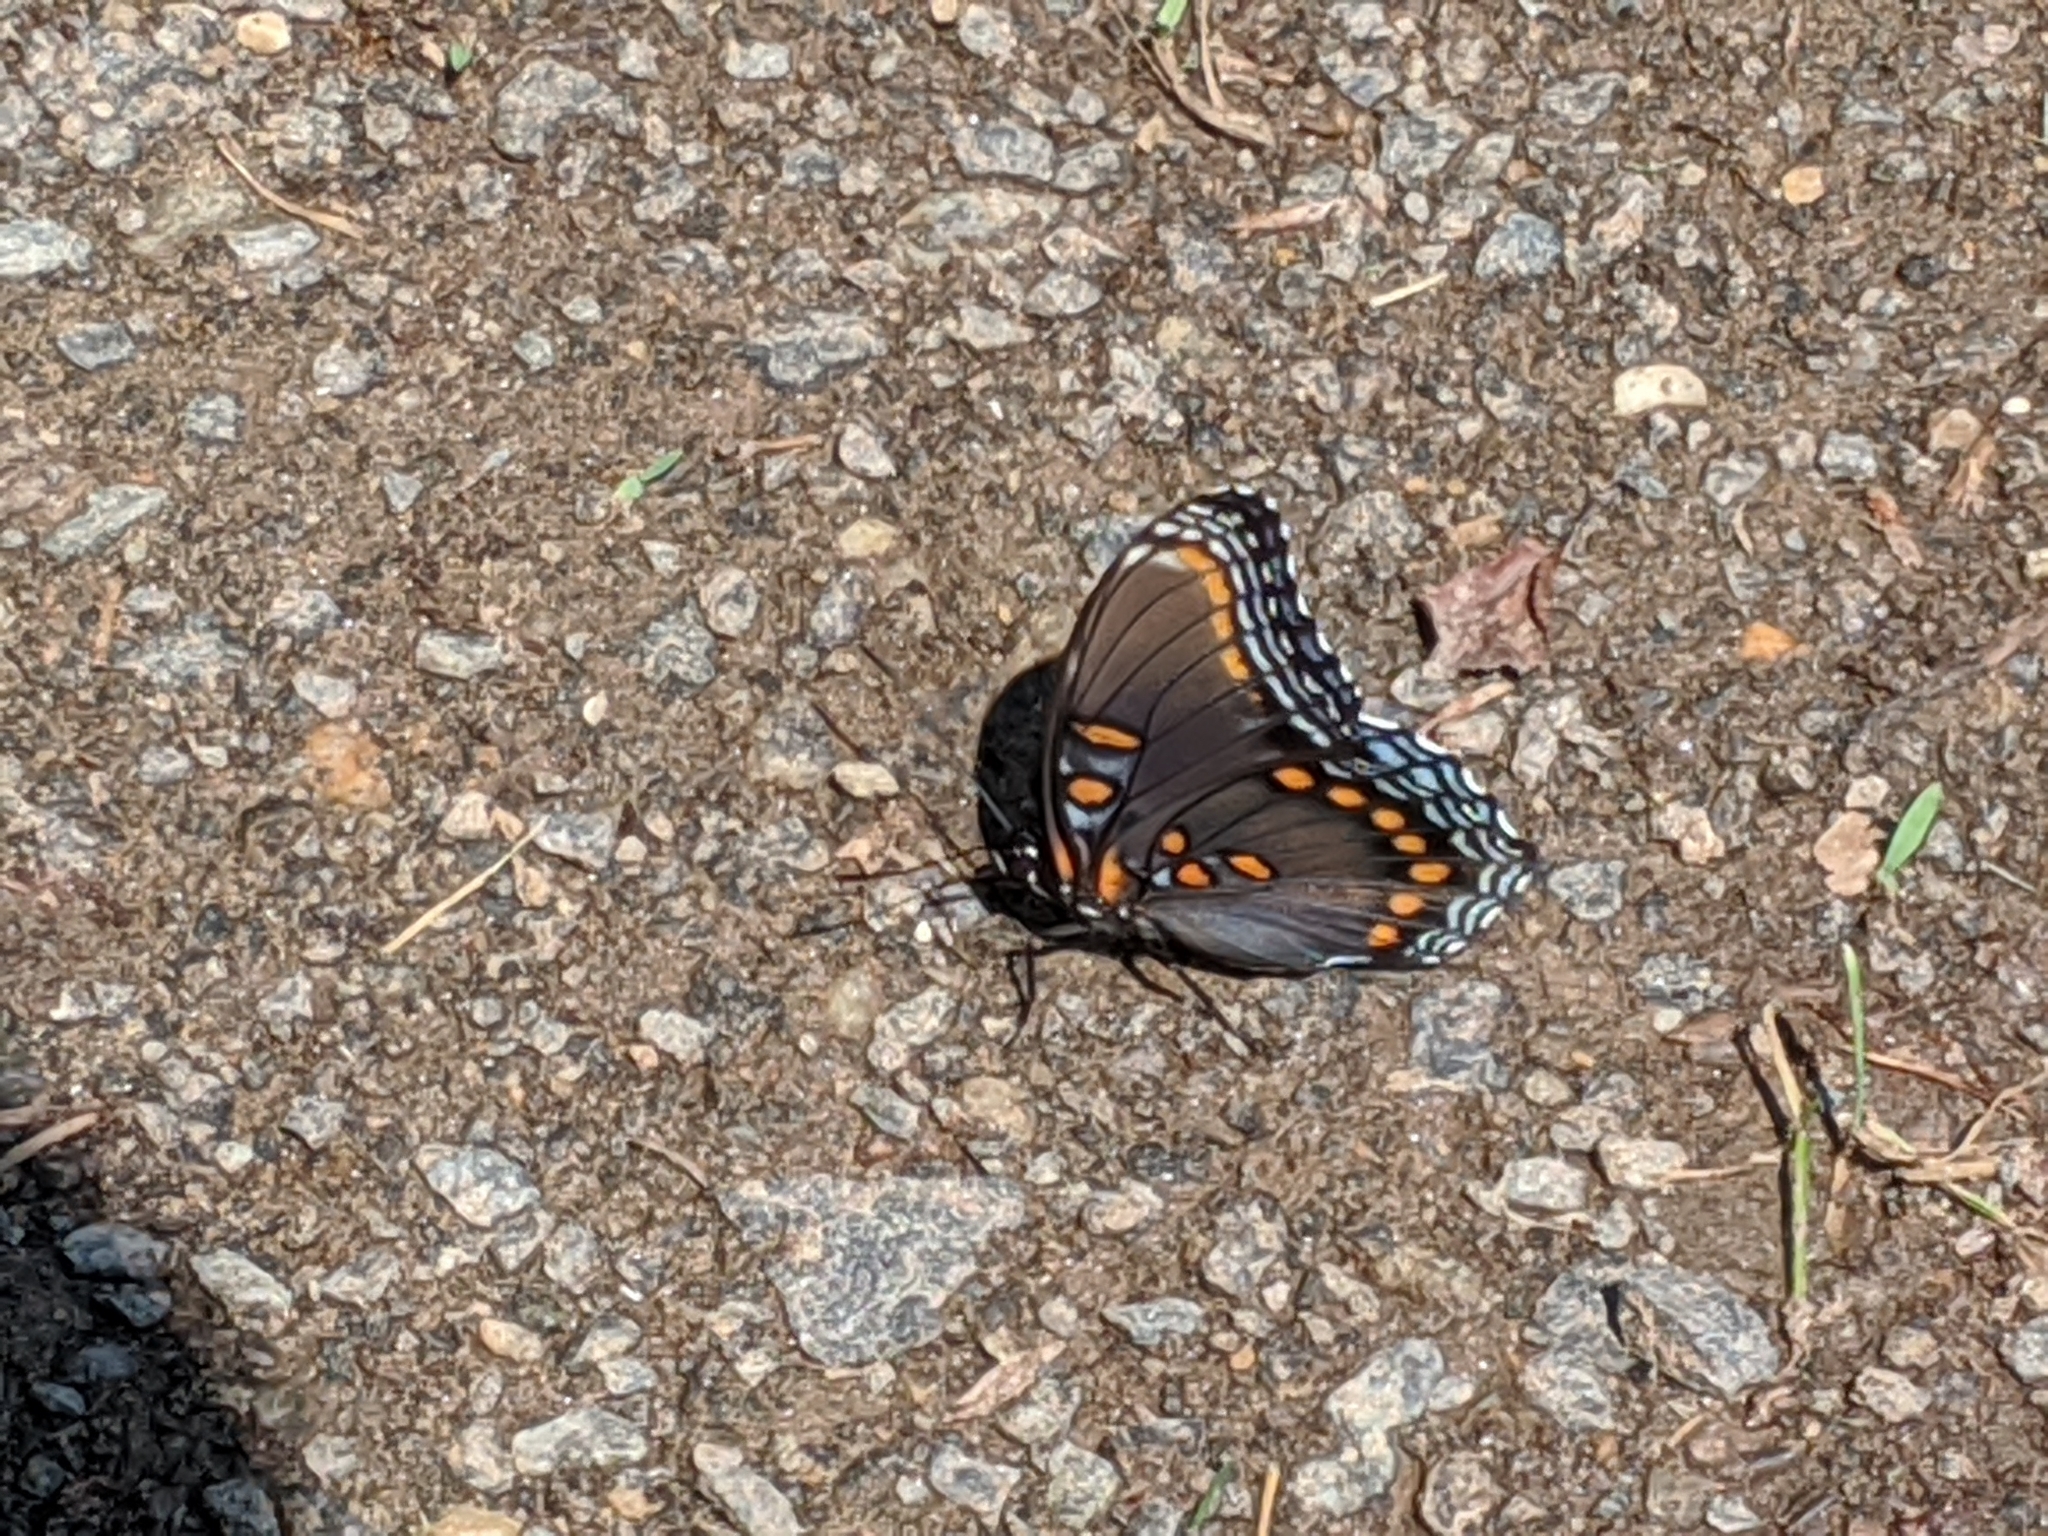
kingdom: Animalia
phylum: Arthropoda
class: Insecta
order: Lepidoptera
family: Nymphalidae
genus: Limenitis
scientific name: Limenitis astyanax
